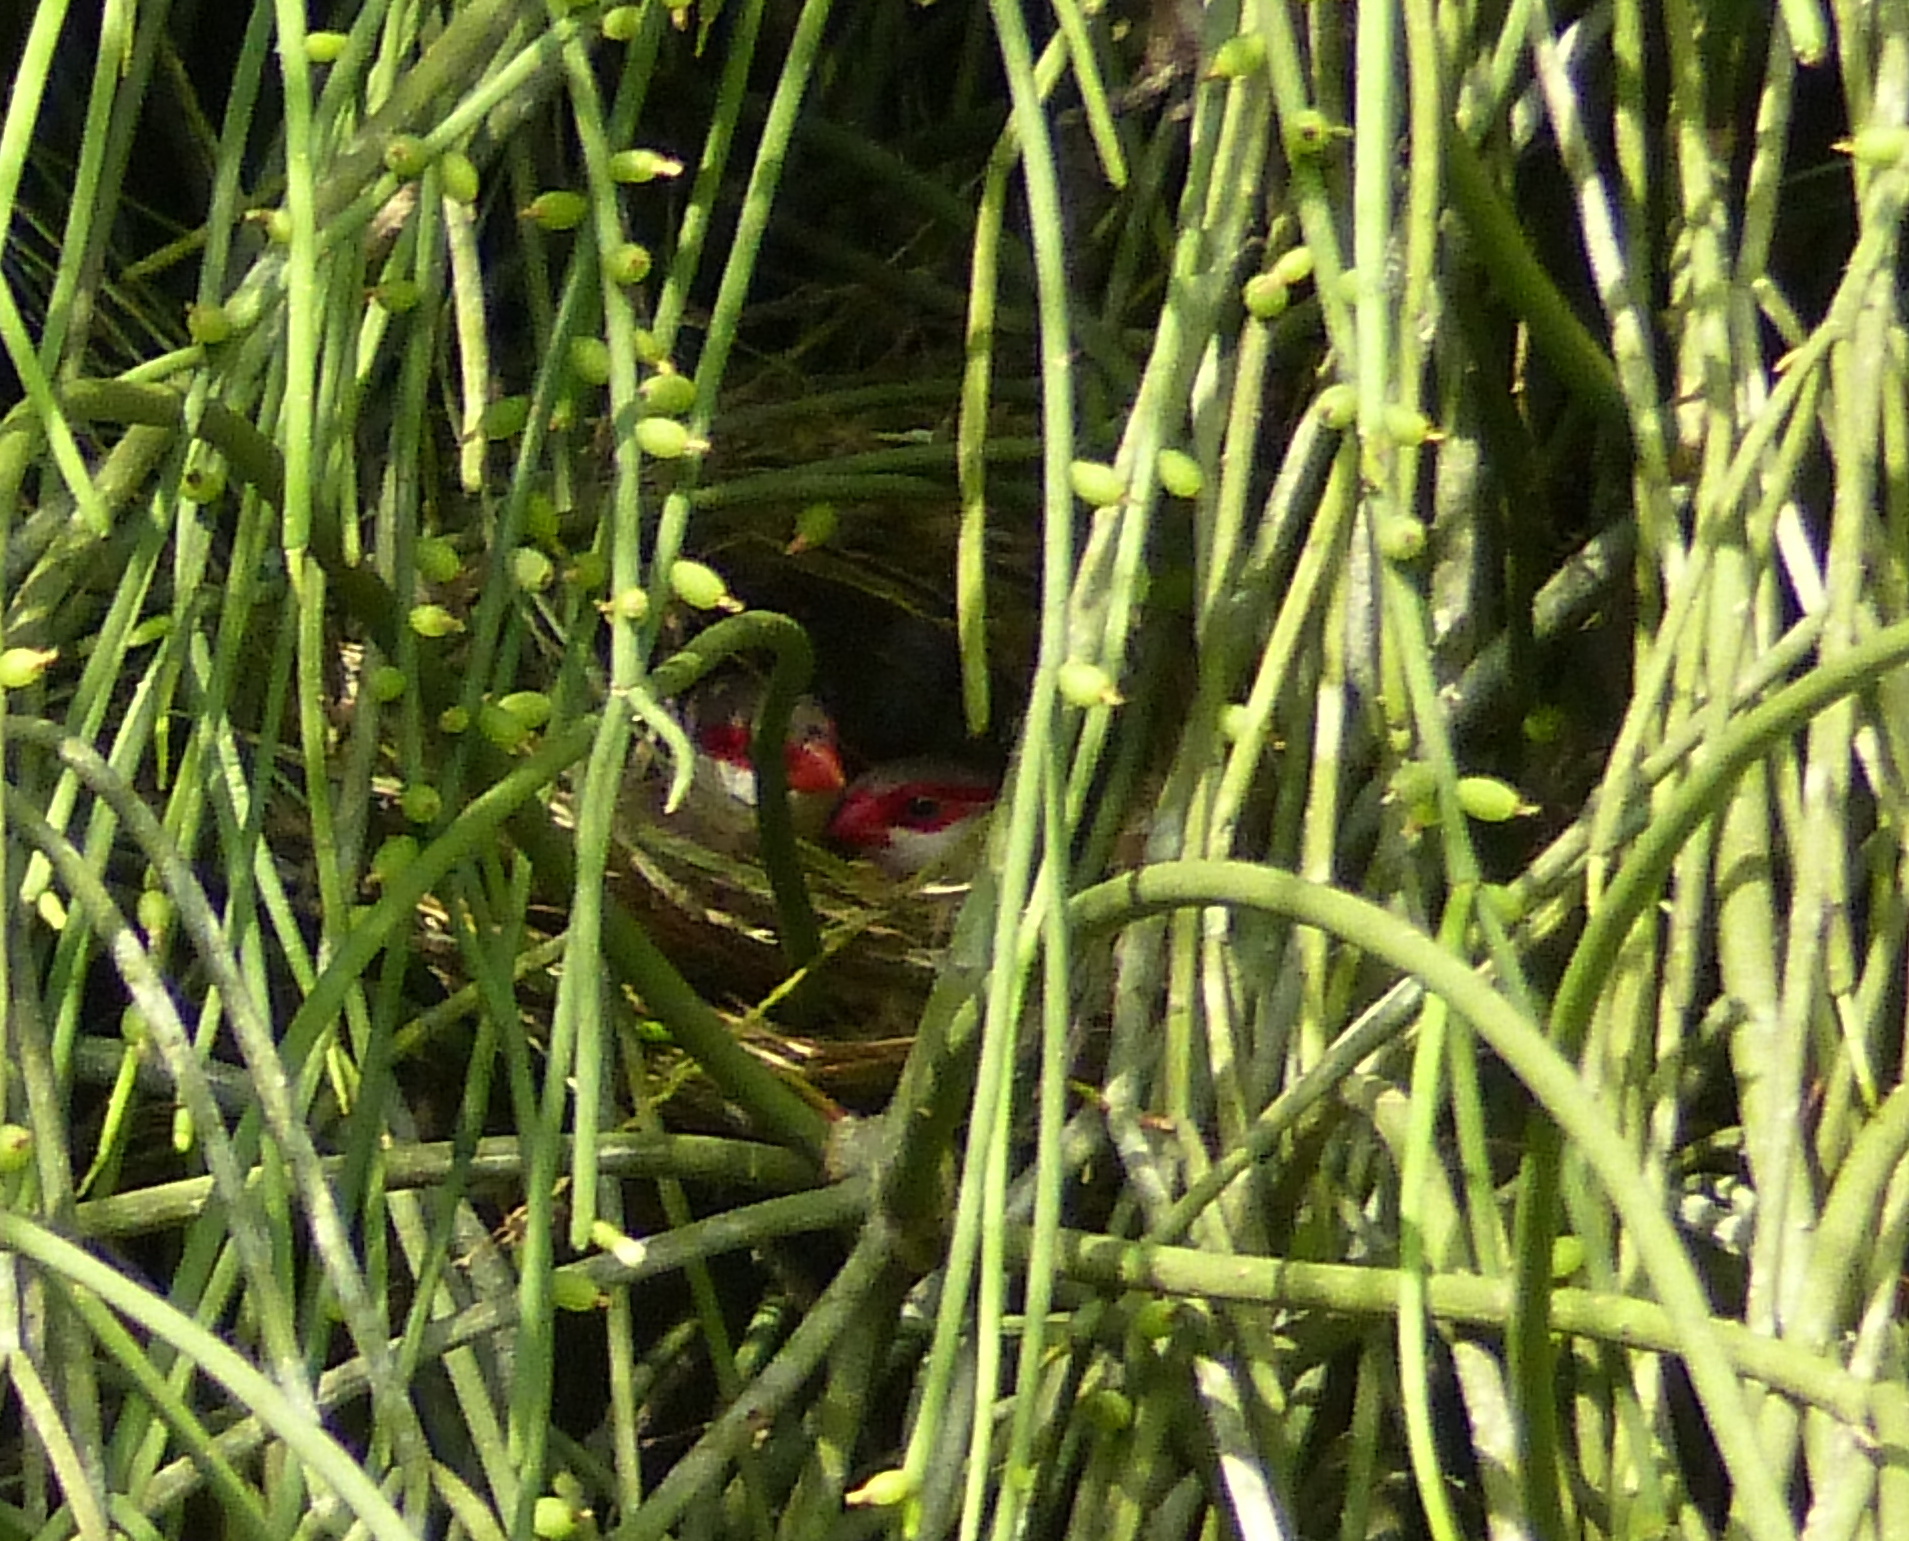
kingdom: Animalia
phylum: Chordata
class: Aves
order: Passeriformes
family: Estrildidae
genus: Estrilda
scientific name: Estrilda astrild
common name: Common waxbill
